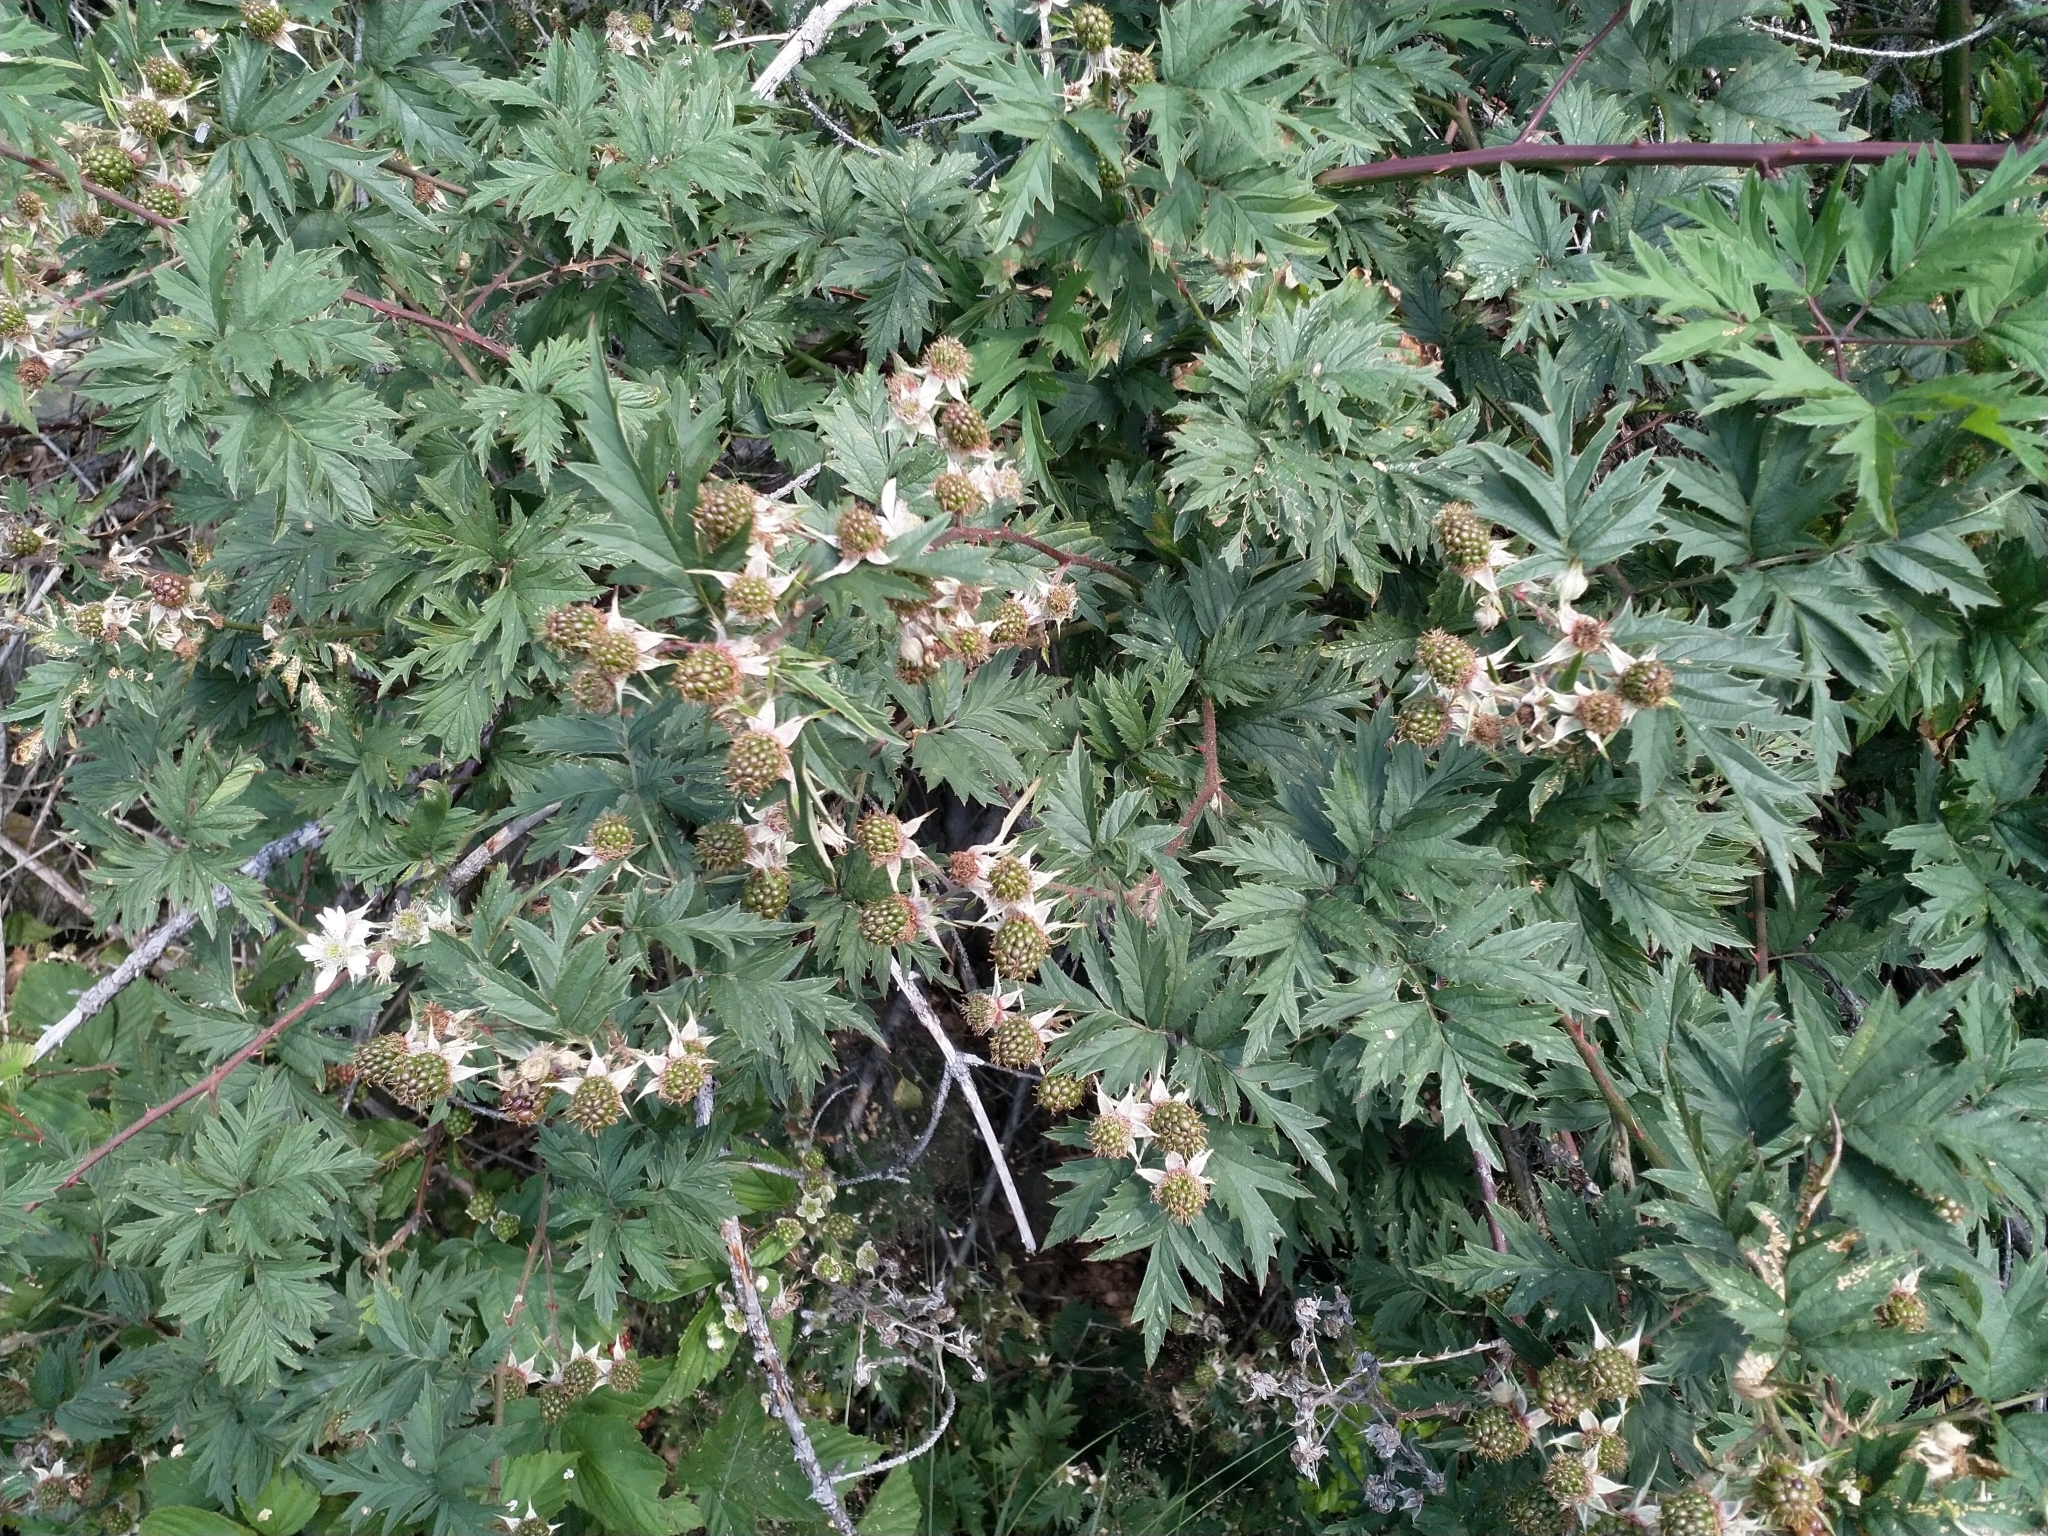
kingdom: Plantae
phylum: Tracheophyta
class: Magnoliopsida
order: Rosales
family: Rosaceae
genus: Rubus
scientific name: Rubus laciniatus
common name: Evergreen blackberry
